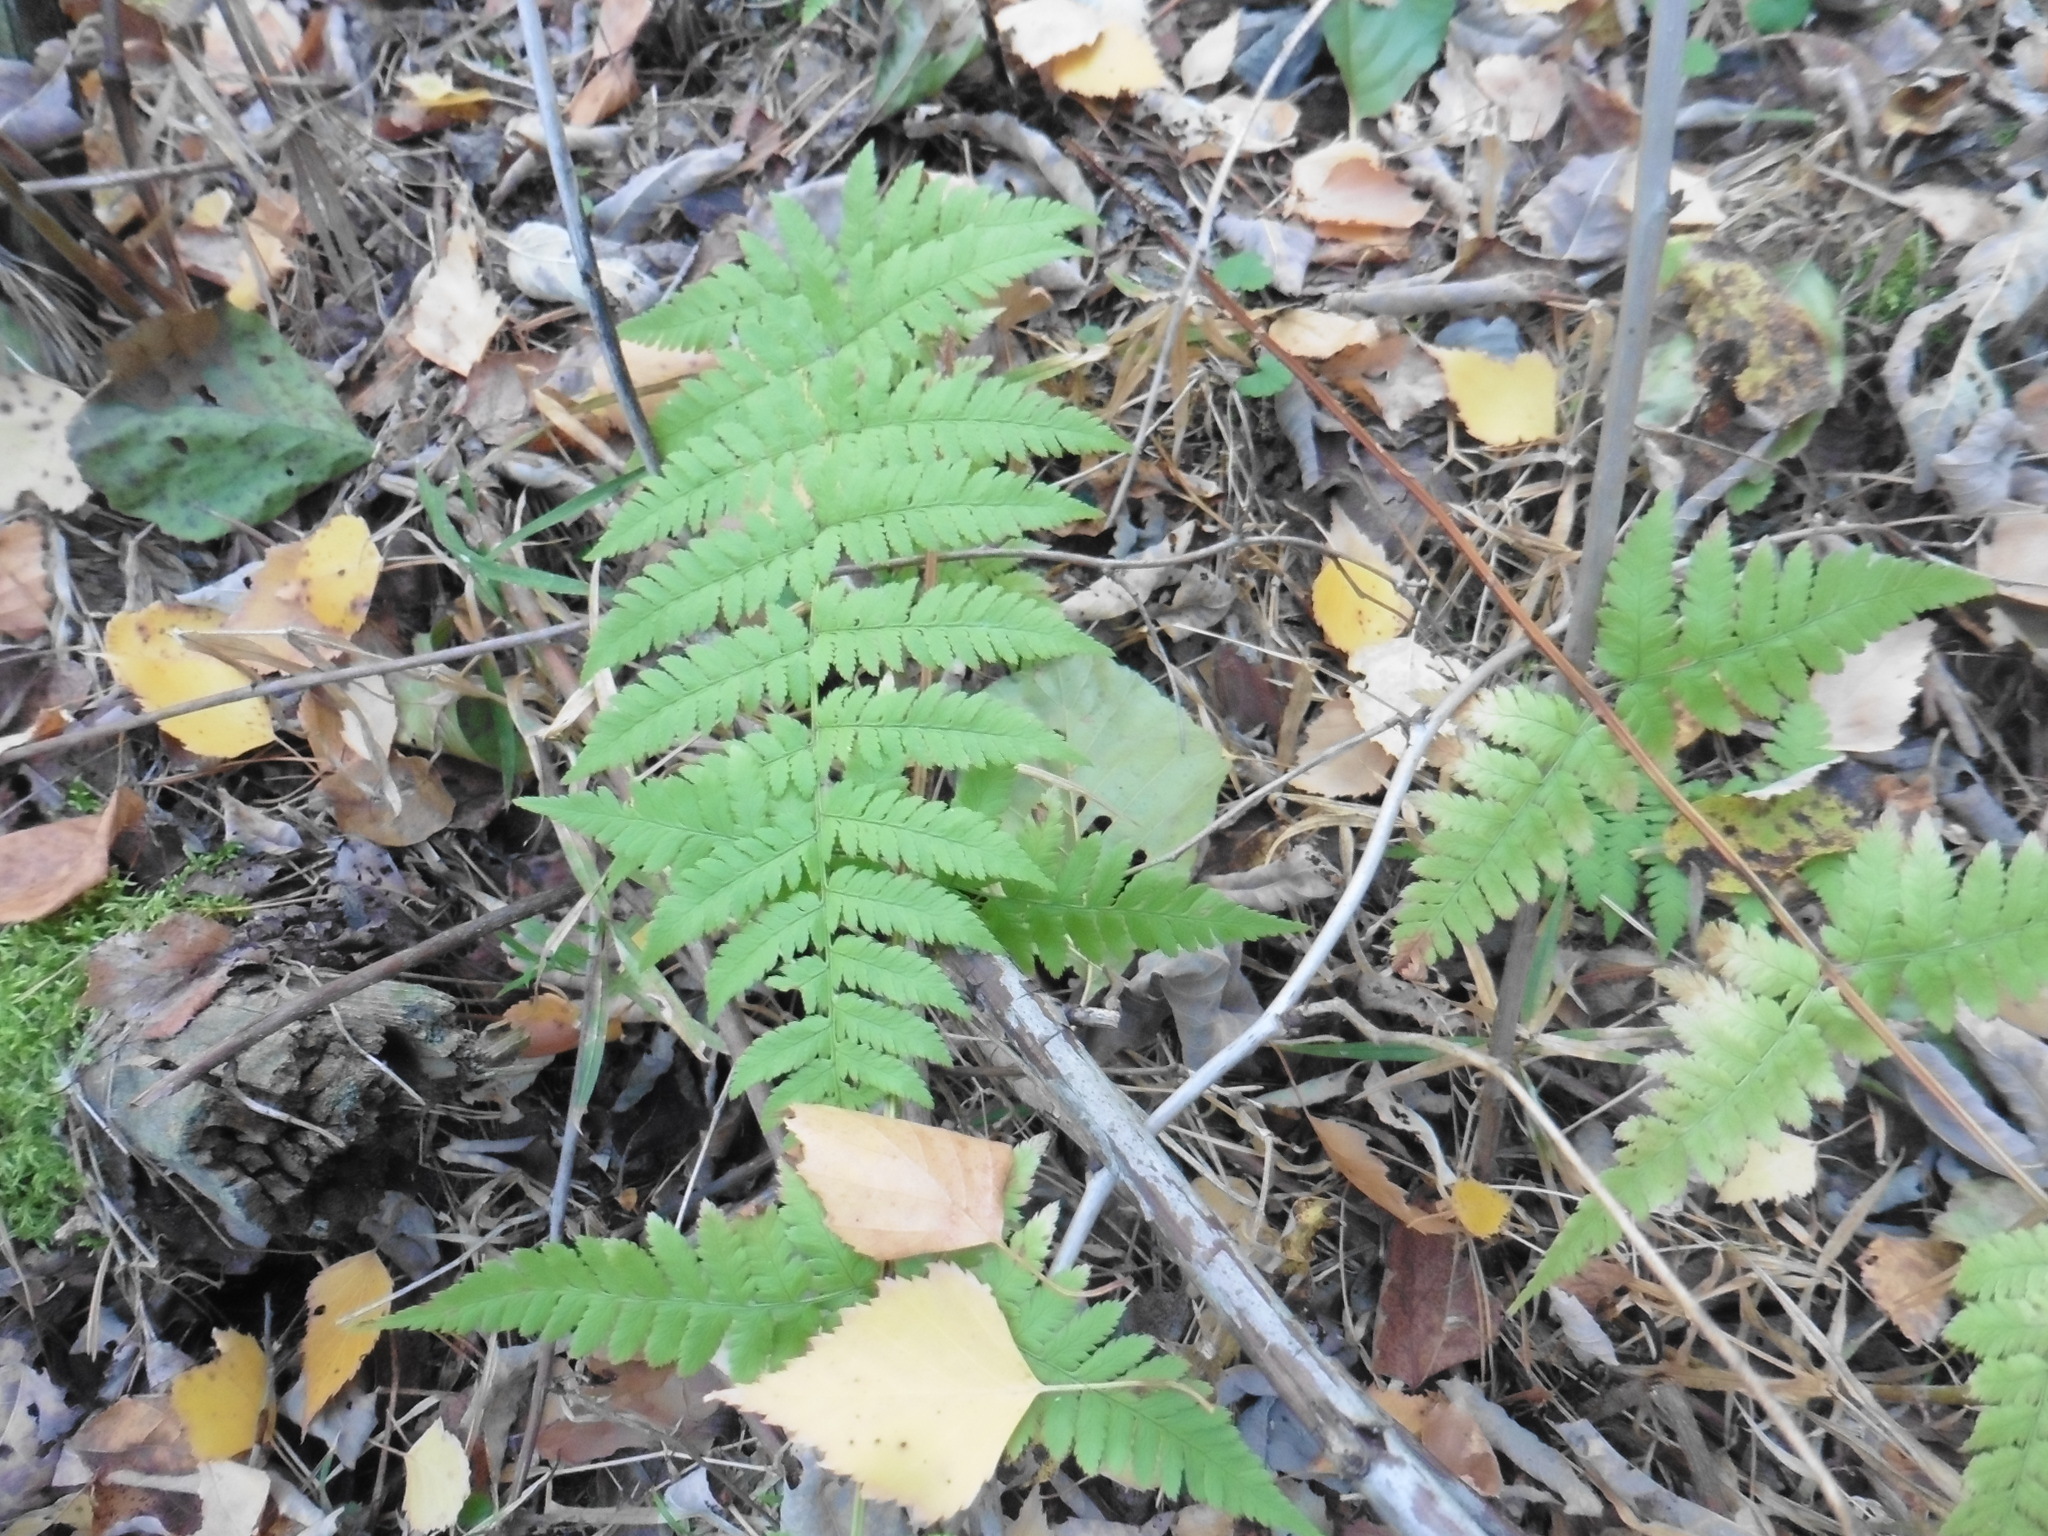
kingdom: Plantae
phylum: Tracheophyta
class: Polypodiopsida
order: Polypodiales
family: Dryopteridaceae
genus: Dryopteris
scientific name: Dryopteris carthusiana
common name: Narrow buckler-fern
